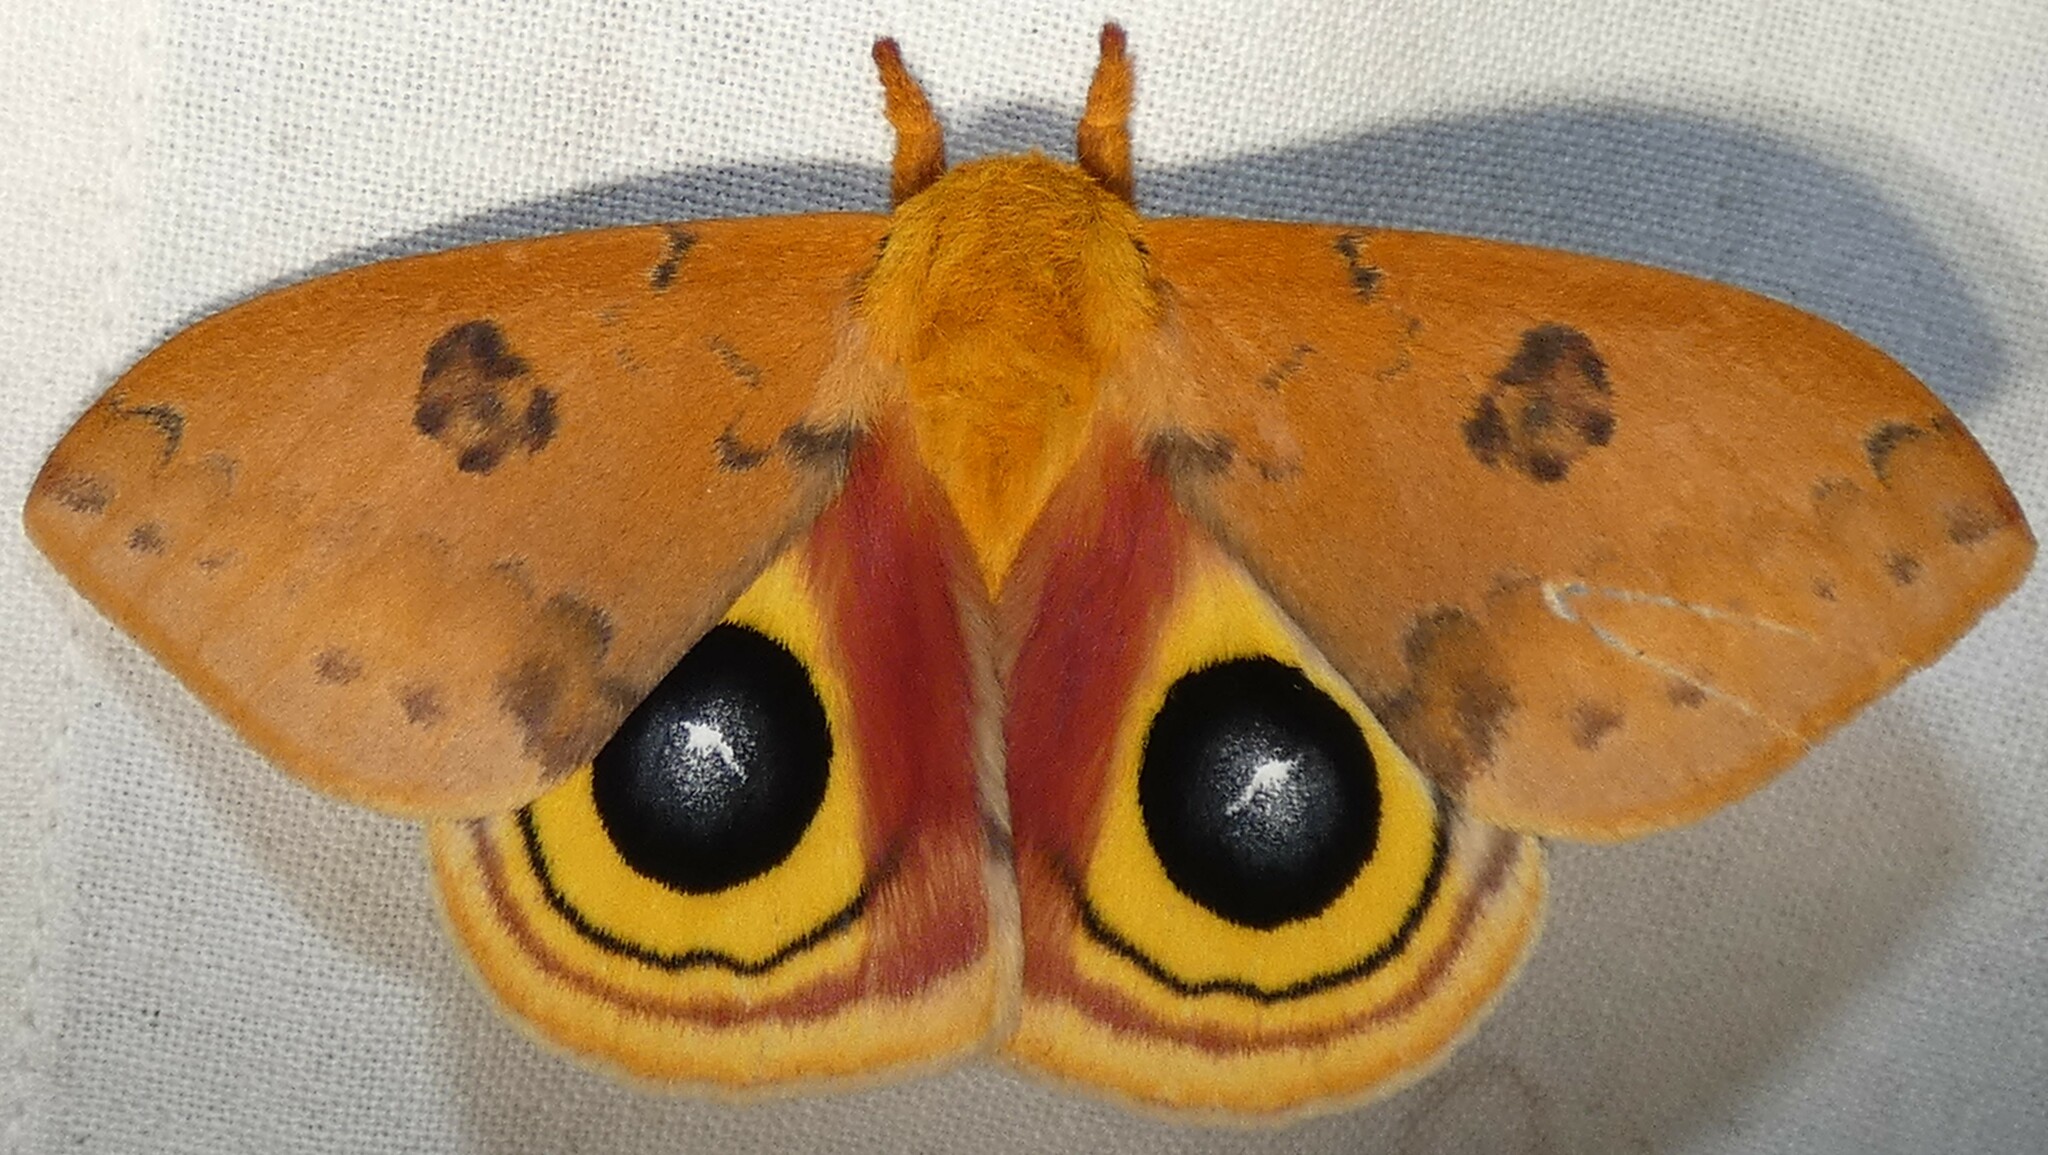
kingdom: Animalia
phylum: Arthropoda
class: Insecta
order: Lepidoptera
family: Saturniidae
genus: Automeris
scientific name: Automeris io
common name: Io moth
